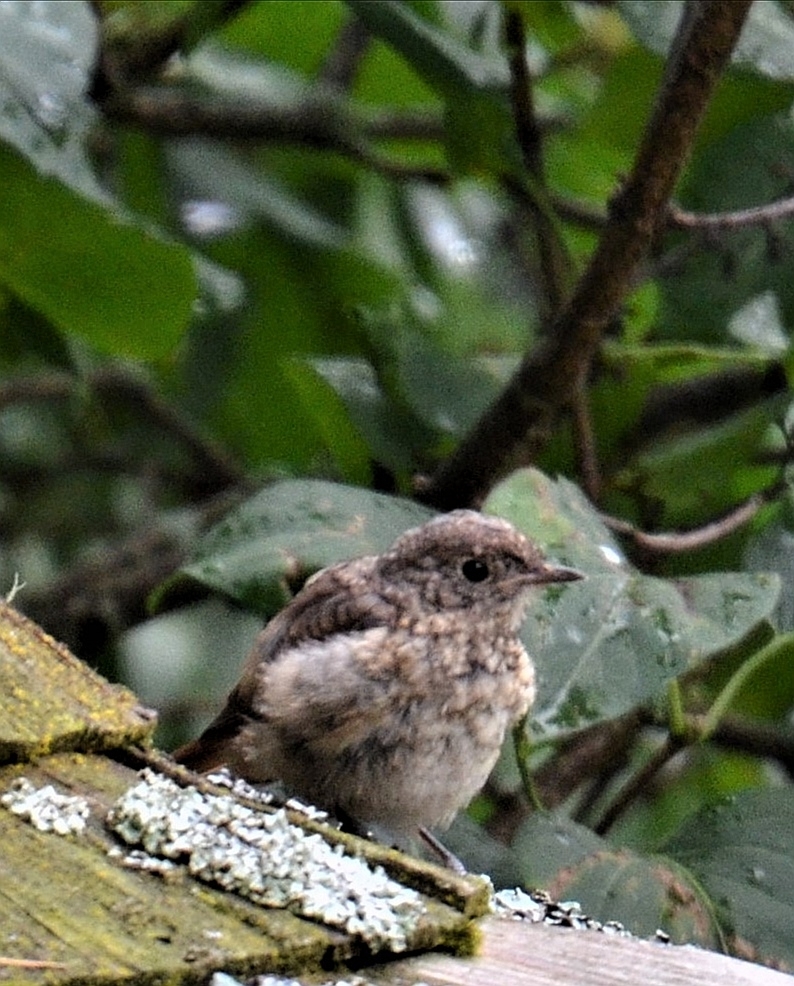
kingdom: Animalia
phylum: Chordata
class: Aves
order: Passeriformes
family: Muscicapidae
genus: Phoenicurus
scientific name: Phoenicurus phoenicurus
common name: Common redstart
